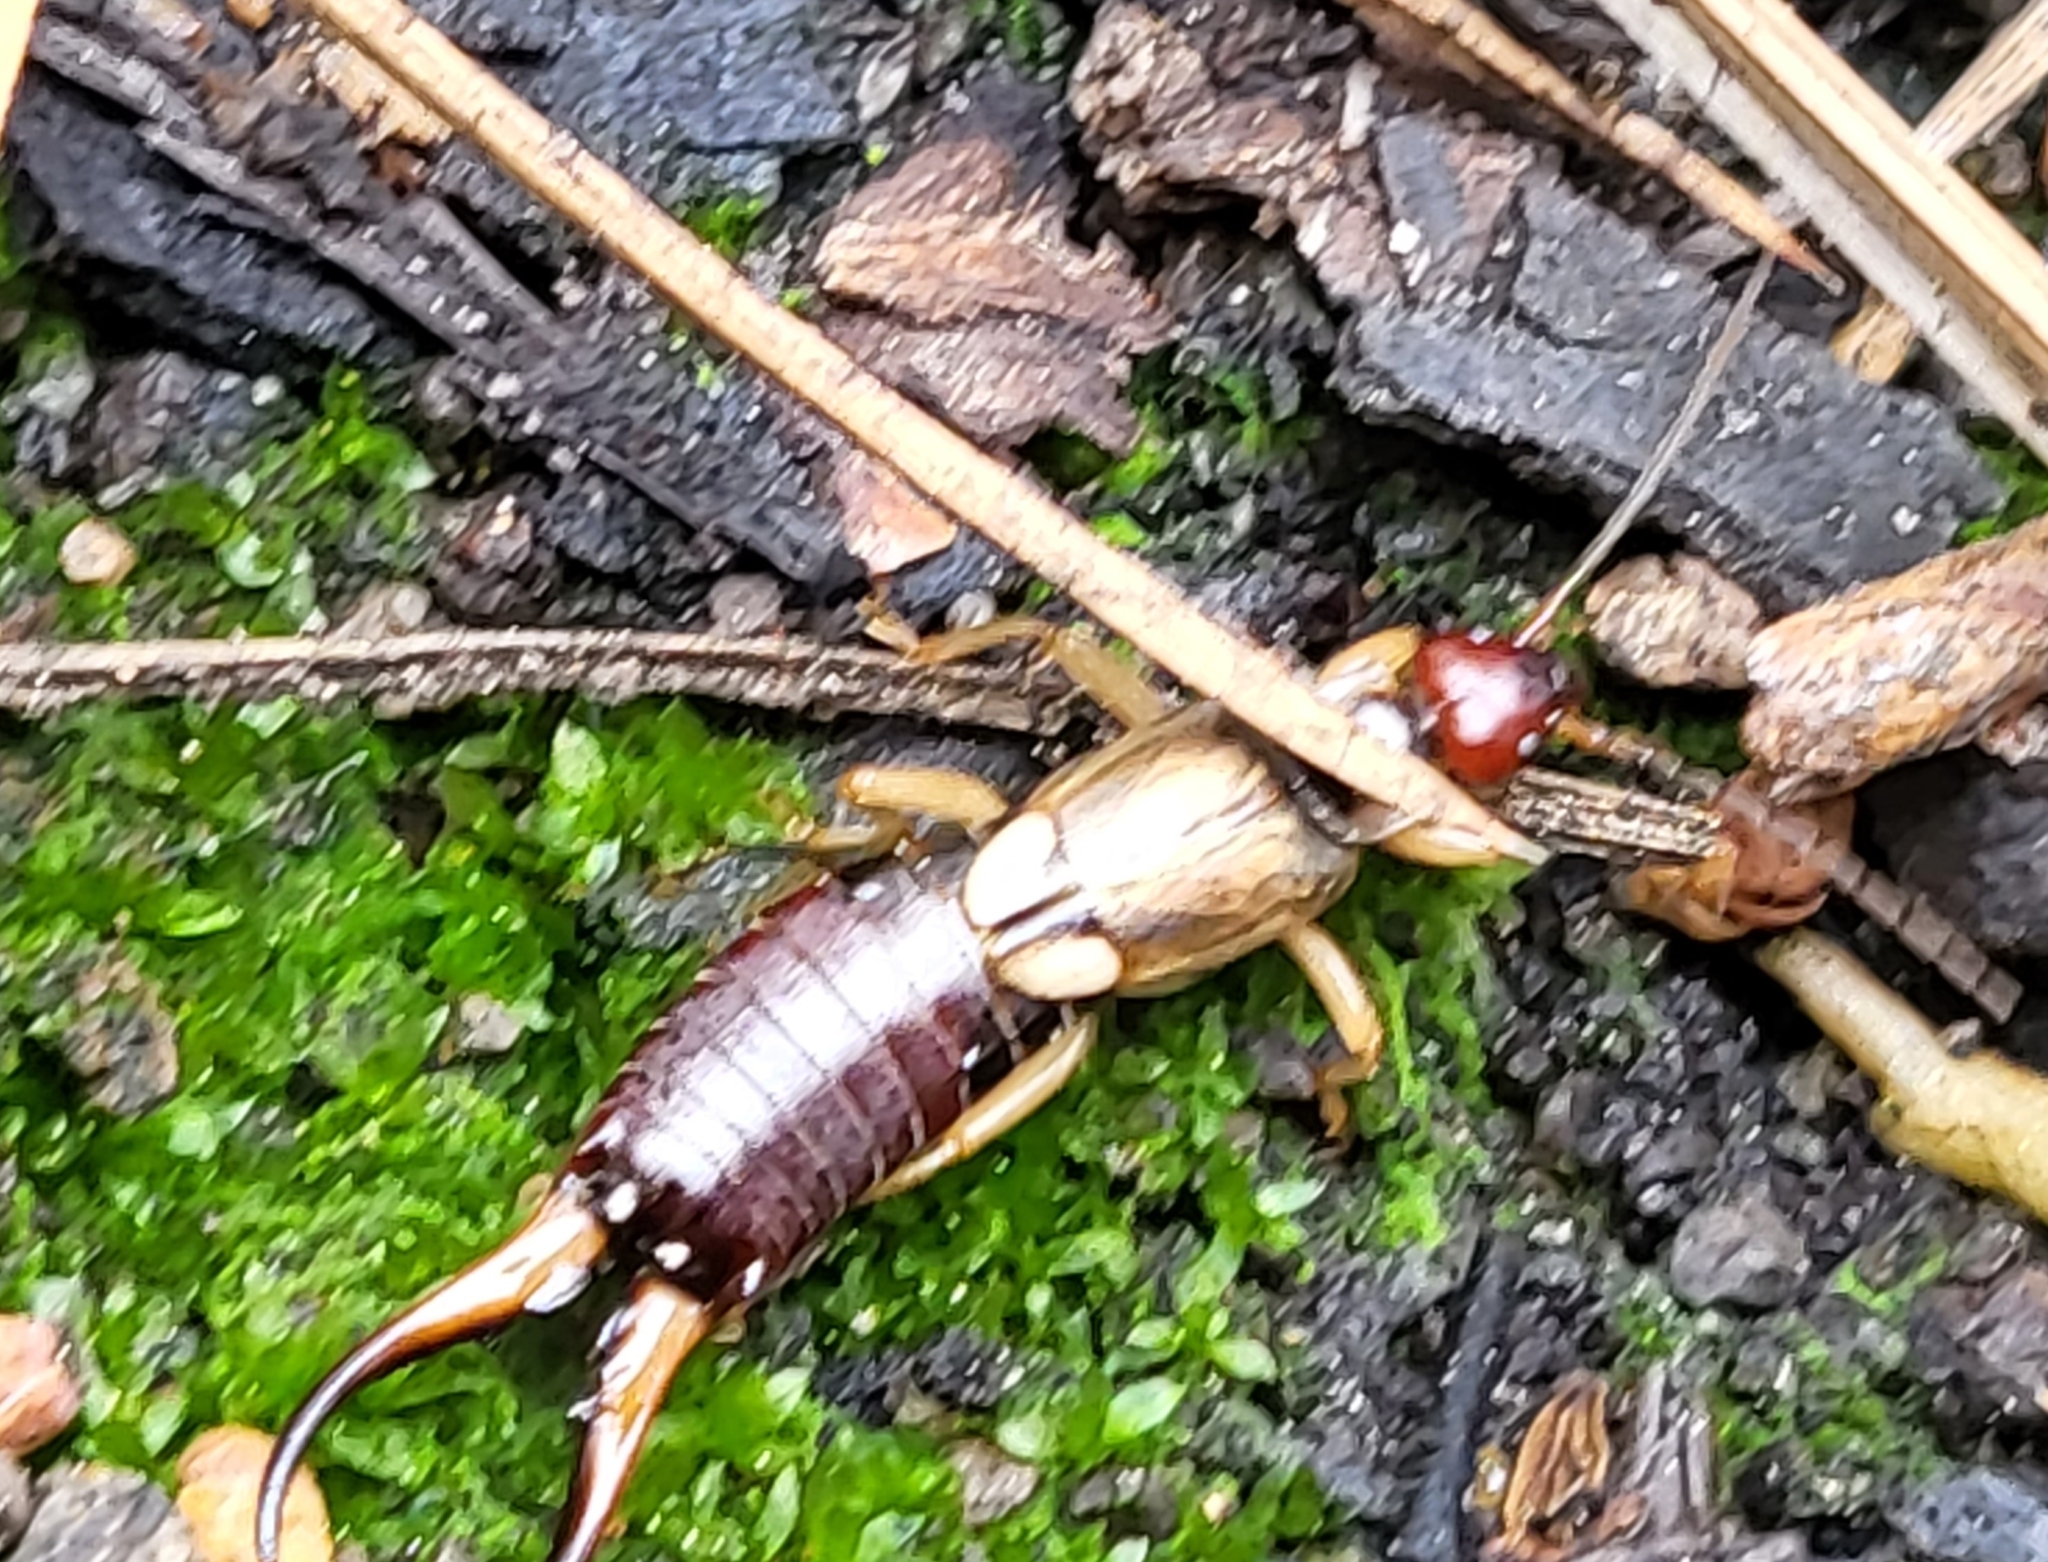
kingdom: Animalia
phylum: Arthropoda
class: Insecta
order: Dermaptera
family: Forficulidae
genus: Forficula
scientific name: Forficula dentata
